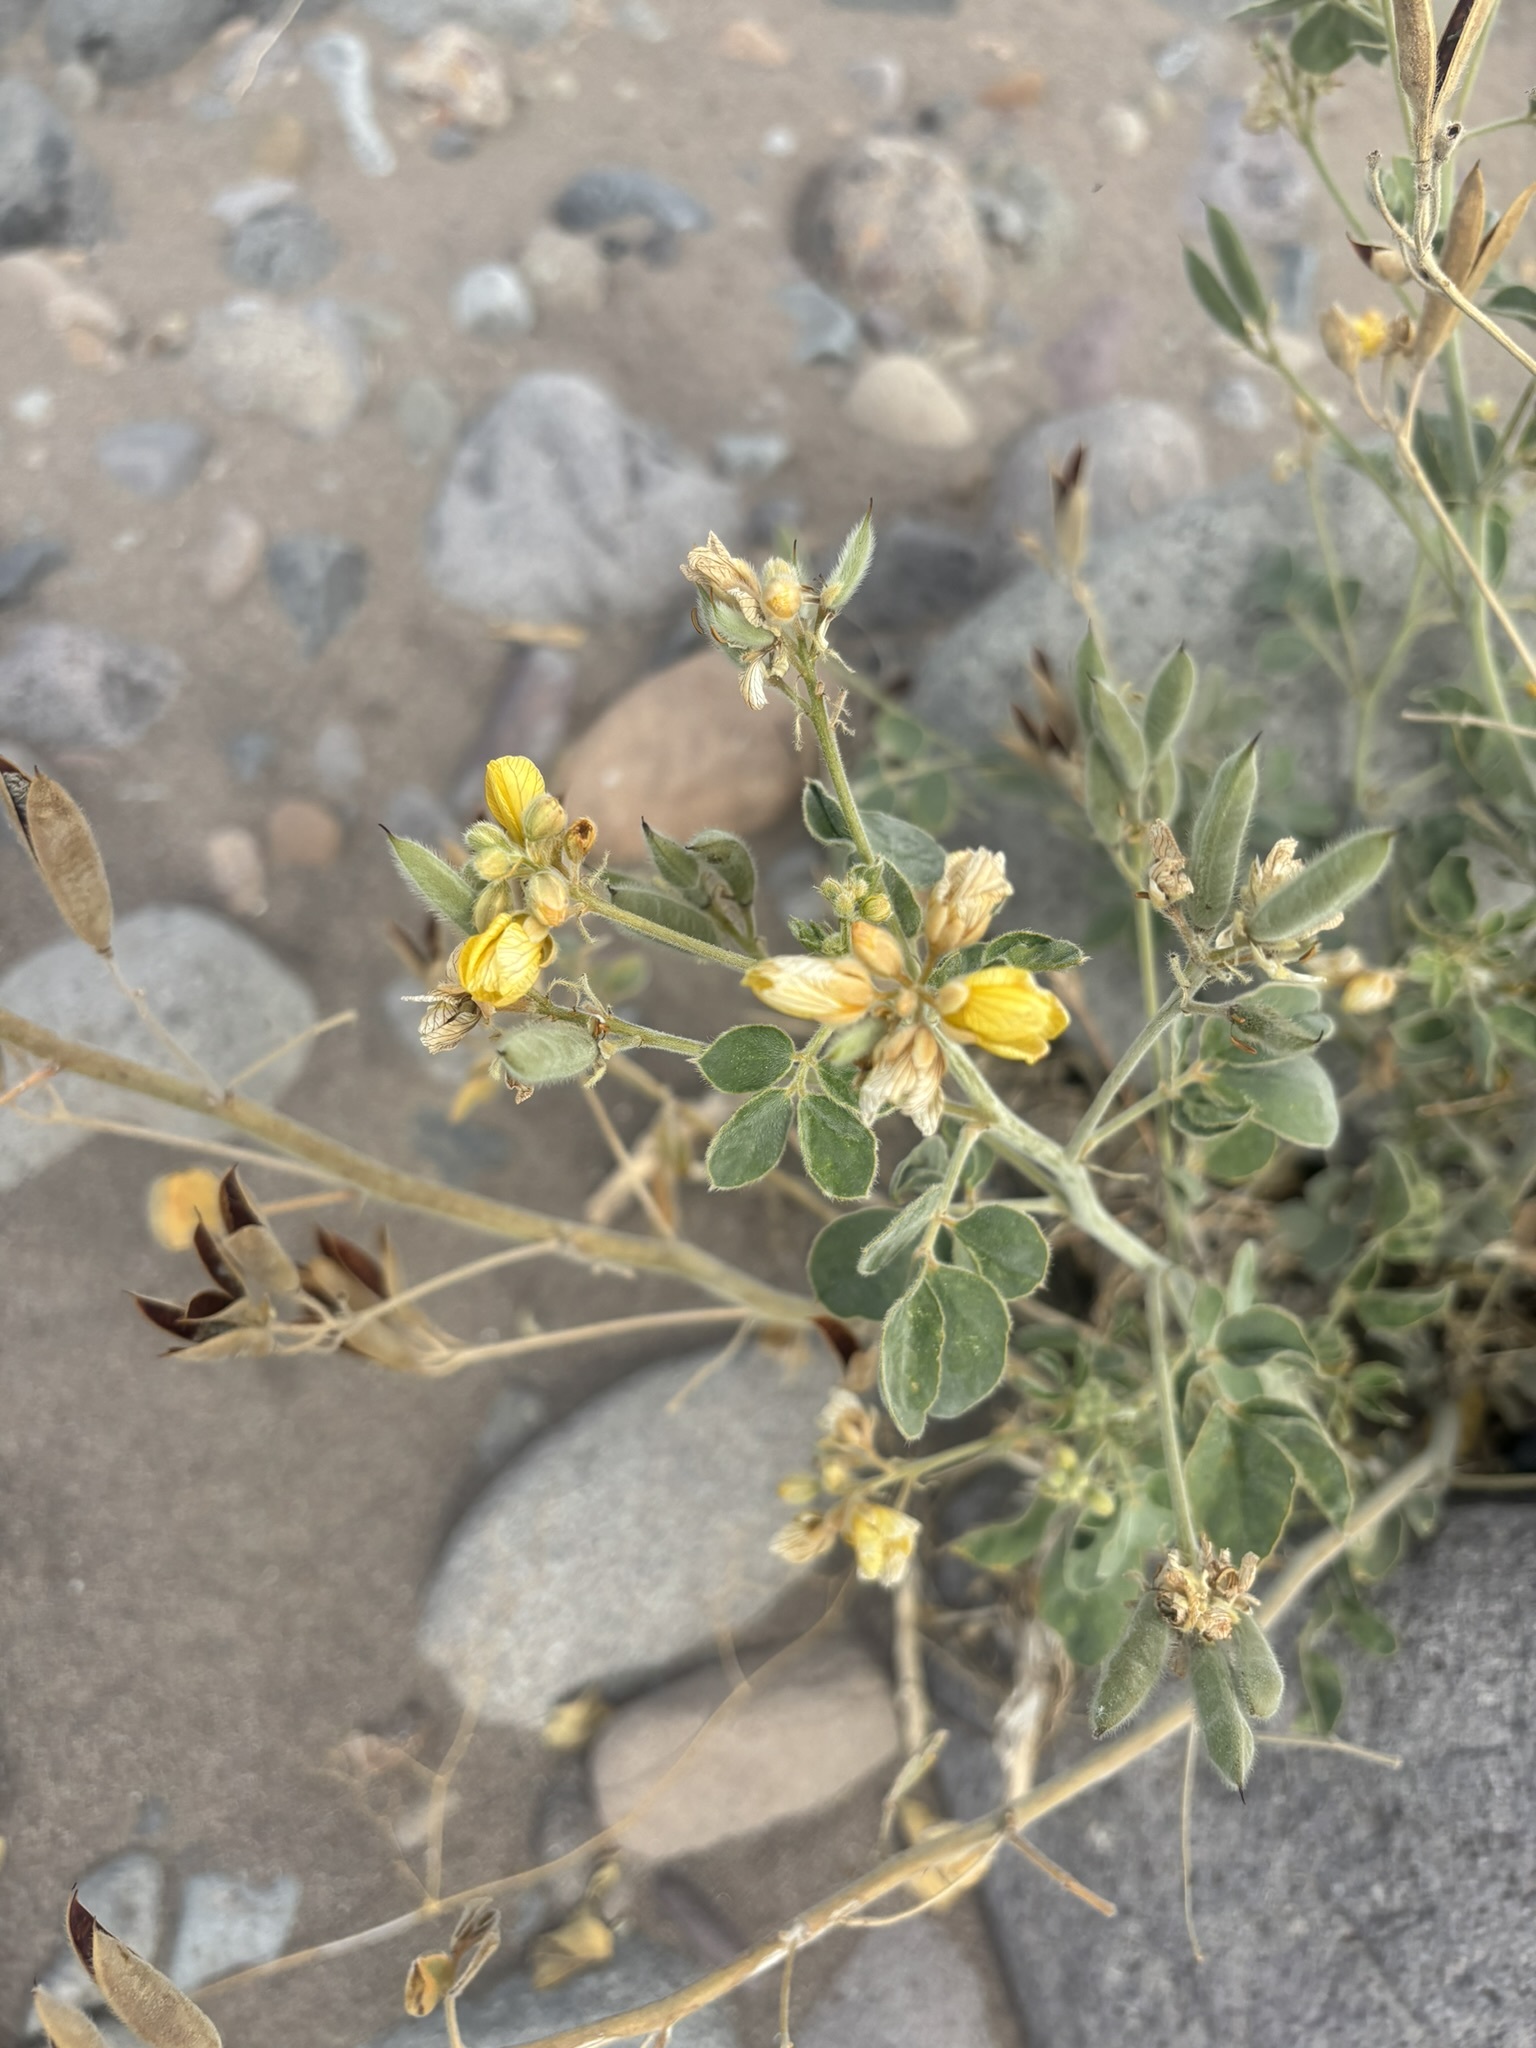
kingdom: Plantae
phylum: Tracheophyta
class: Magnoliopsida
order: Fabales
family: Fabaceae
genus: Senna
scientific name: Senna confinis
